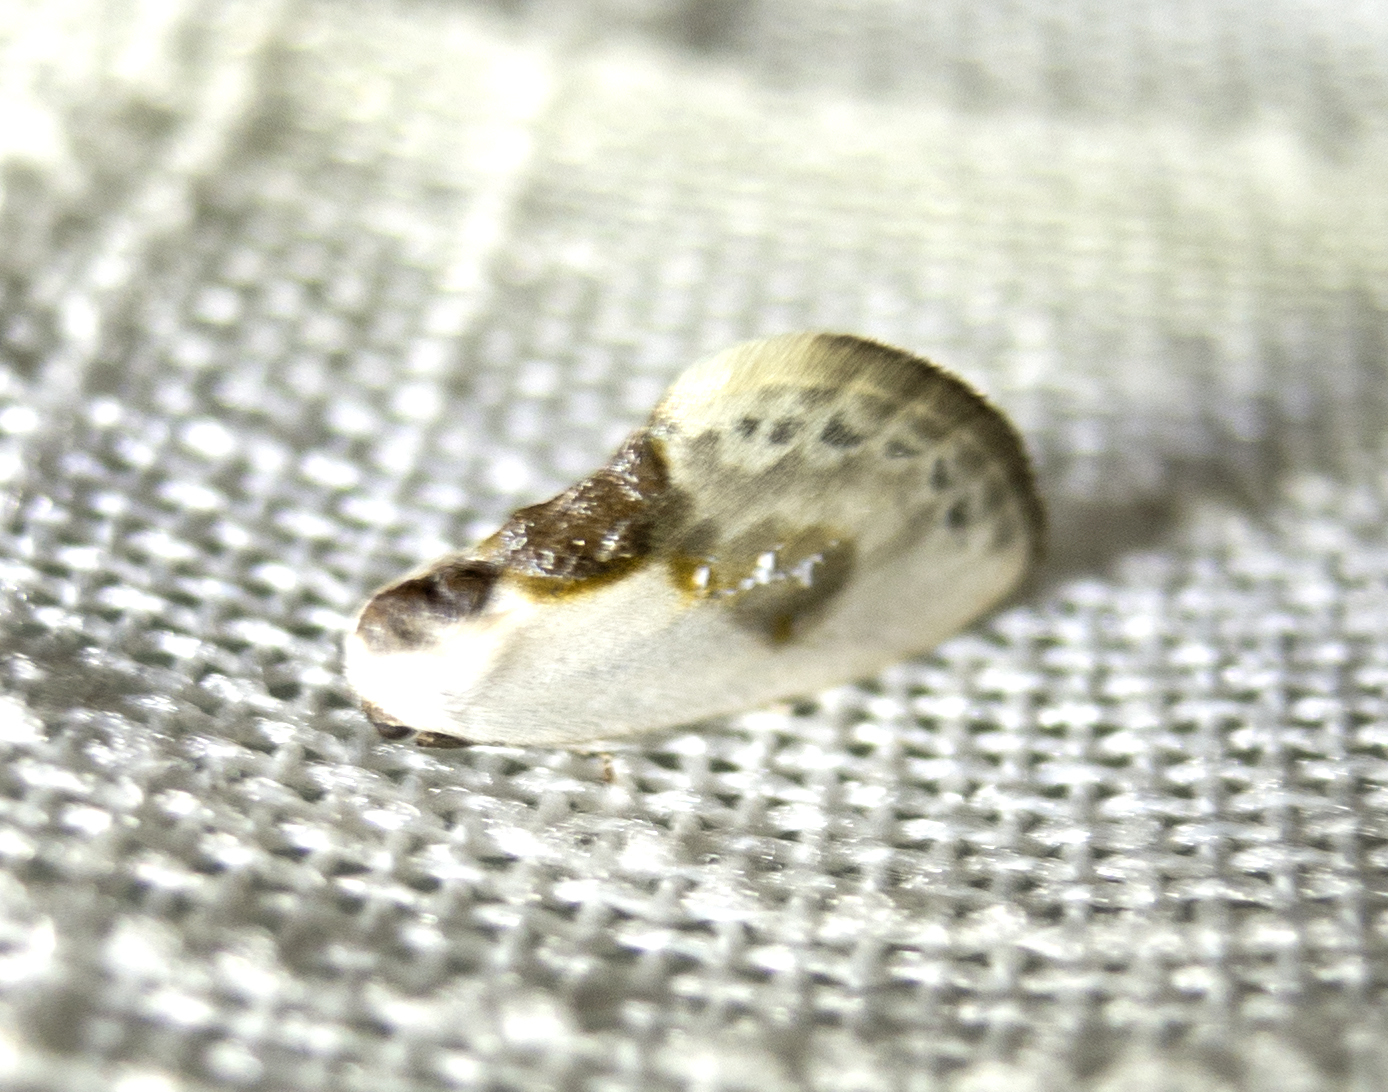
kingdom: Animalia
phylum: Arthropoda
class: Insecta
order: Lepidoptera
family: Drepanidae
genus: Cilix
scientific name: Cilix glaucata
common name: Chinese character
